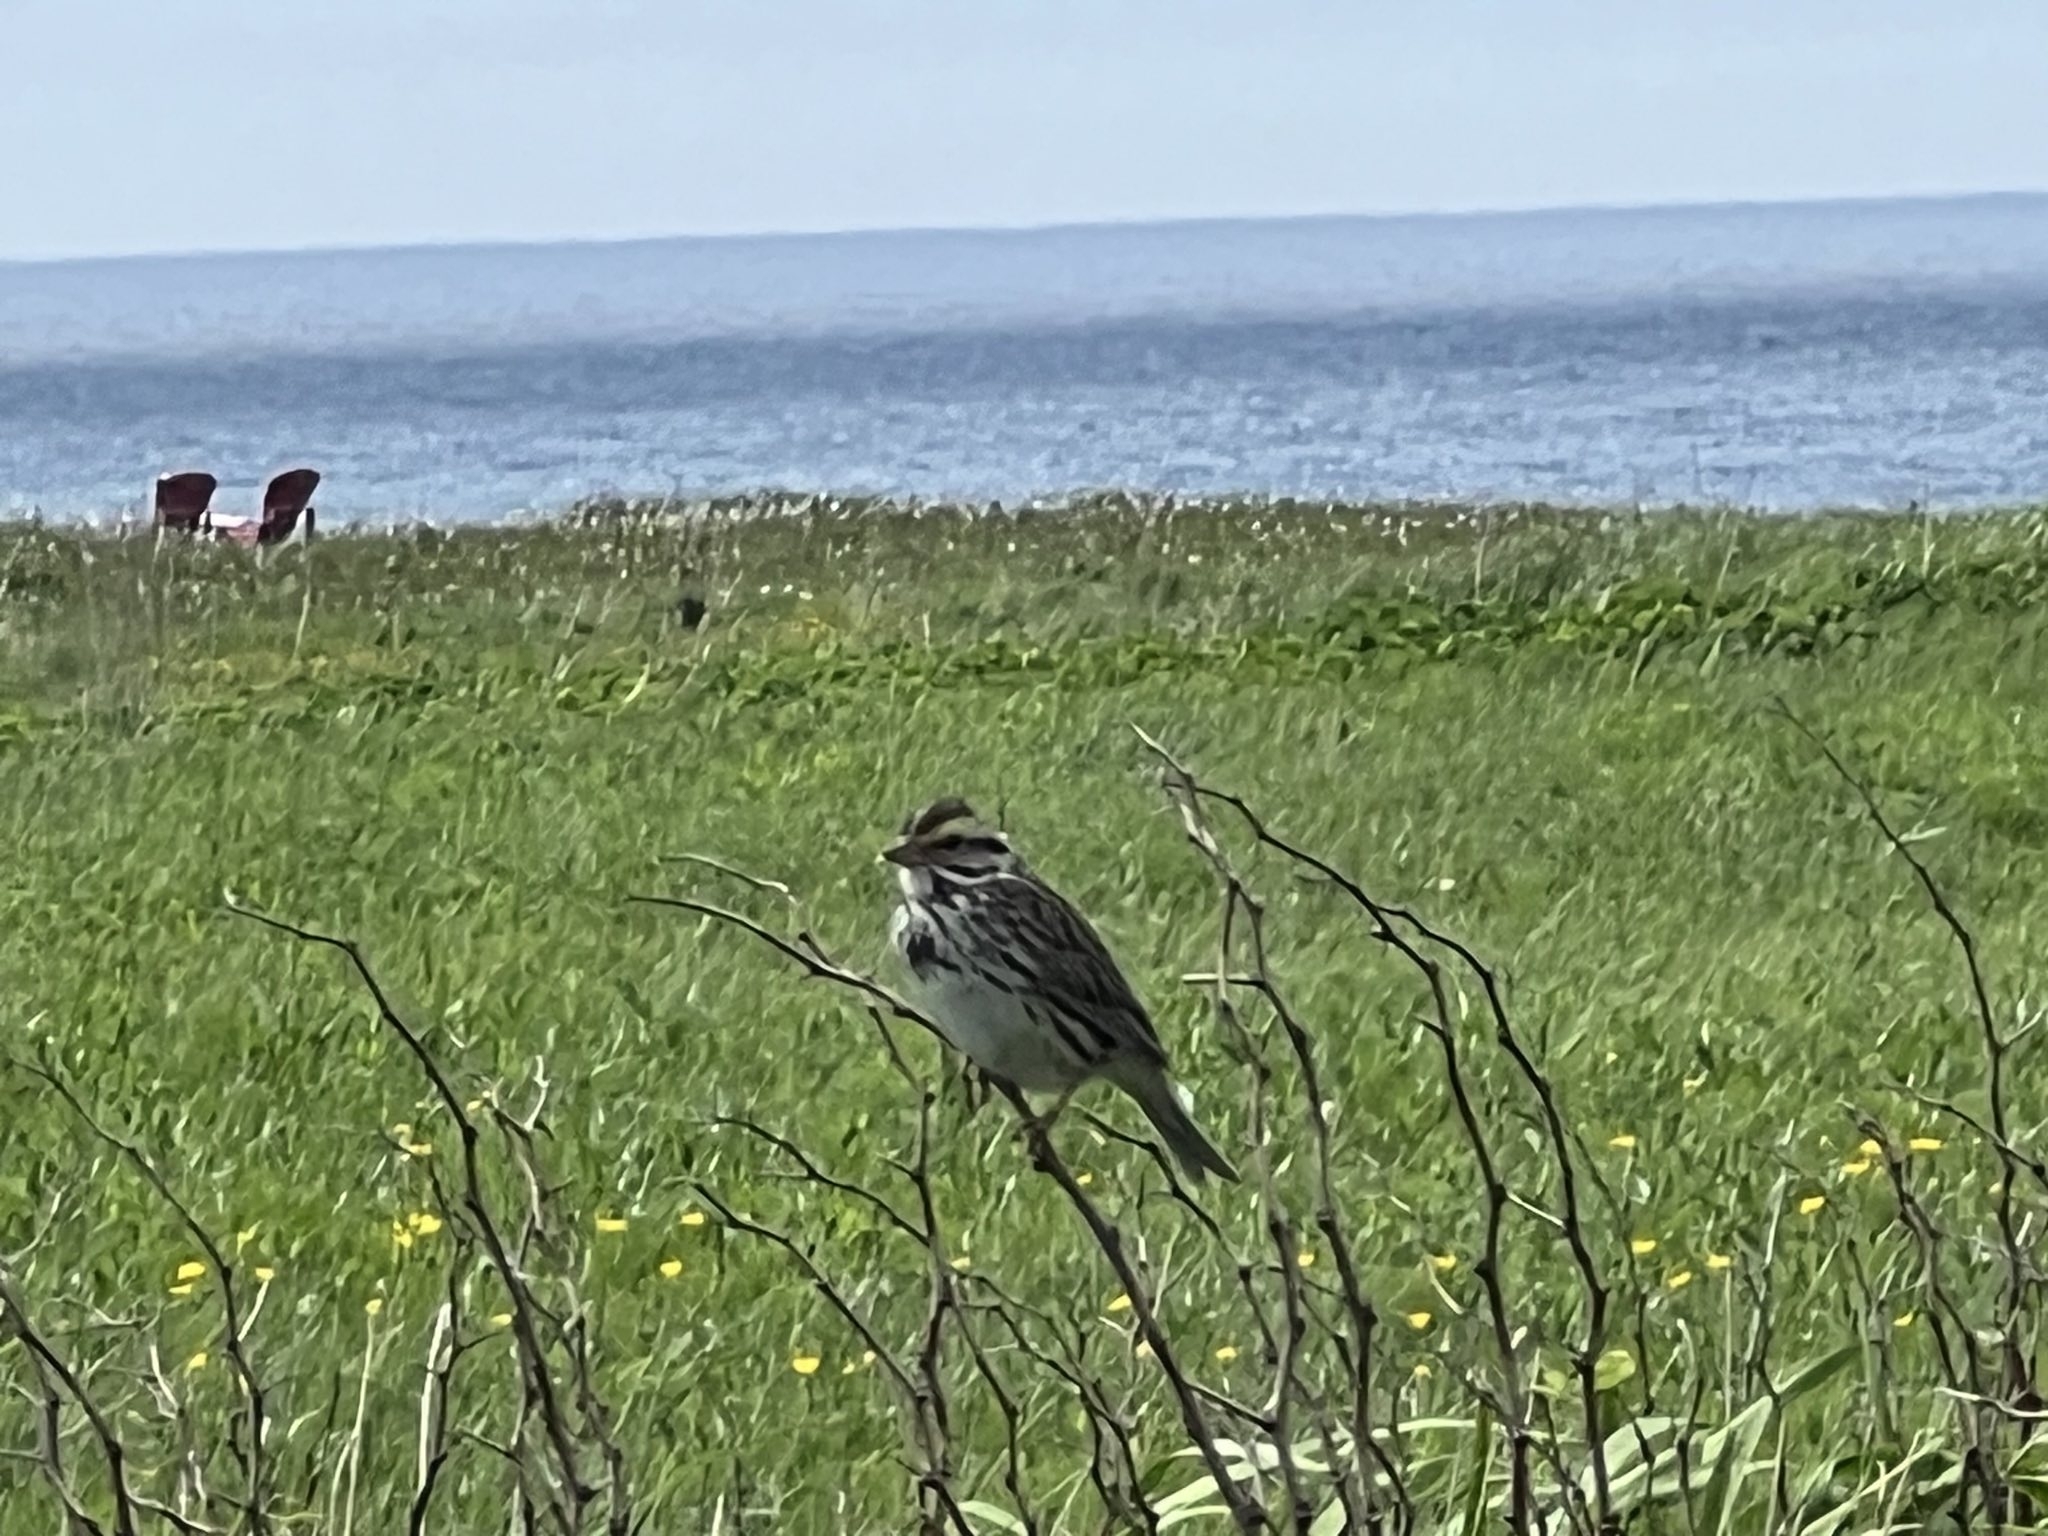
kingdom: Animalia
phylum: Chordata
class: Aves
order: Passeriformes
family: Passerellidae
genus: Passerculus
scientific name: Passerculus sandwichensis
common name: Savannah sparrow
